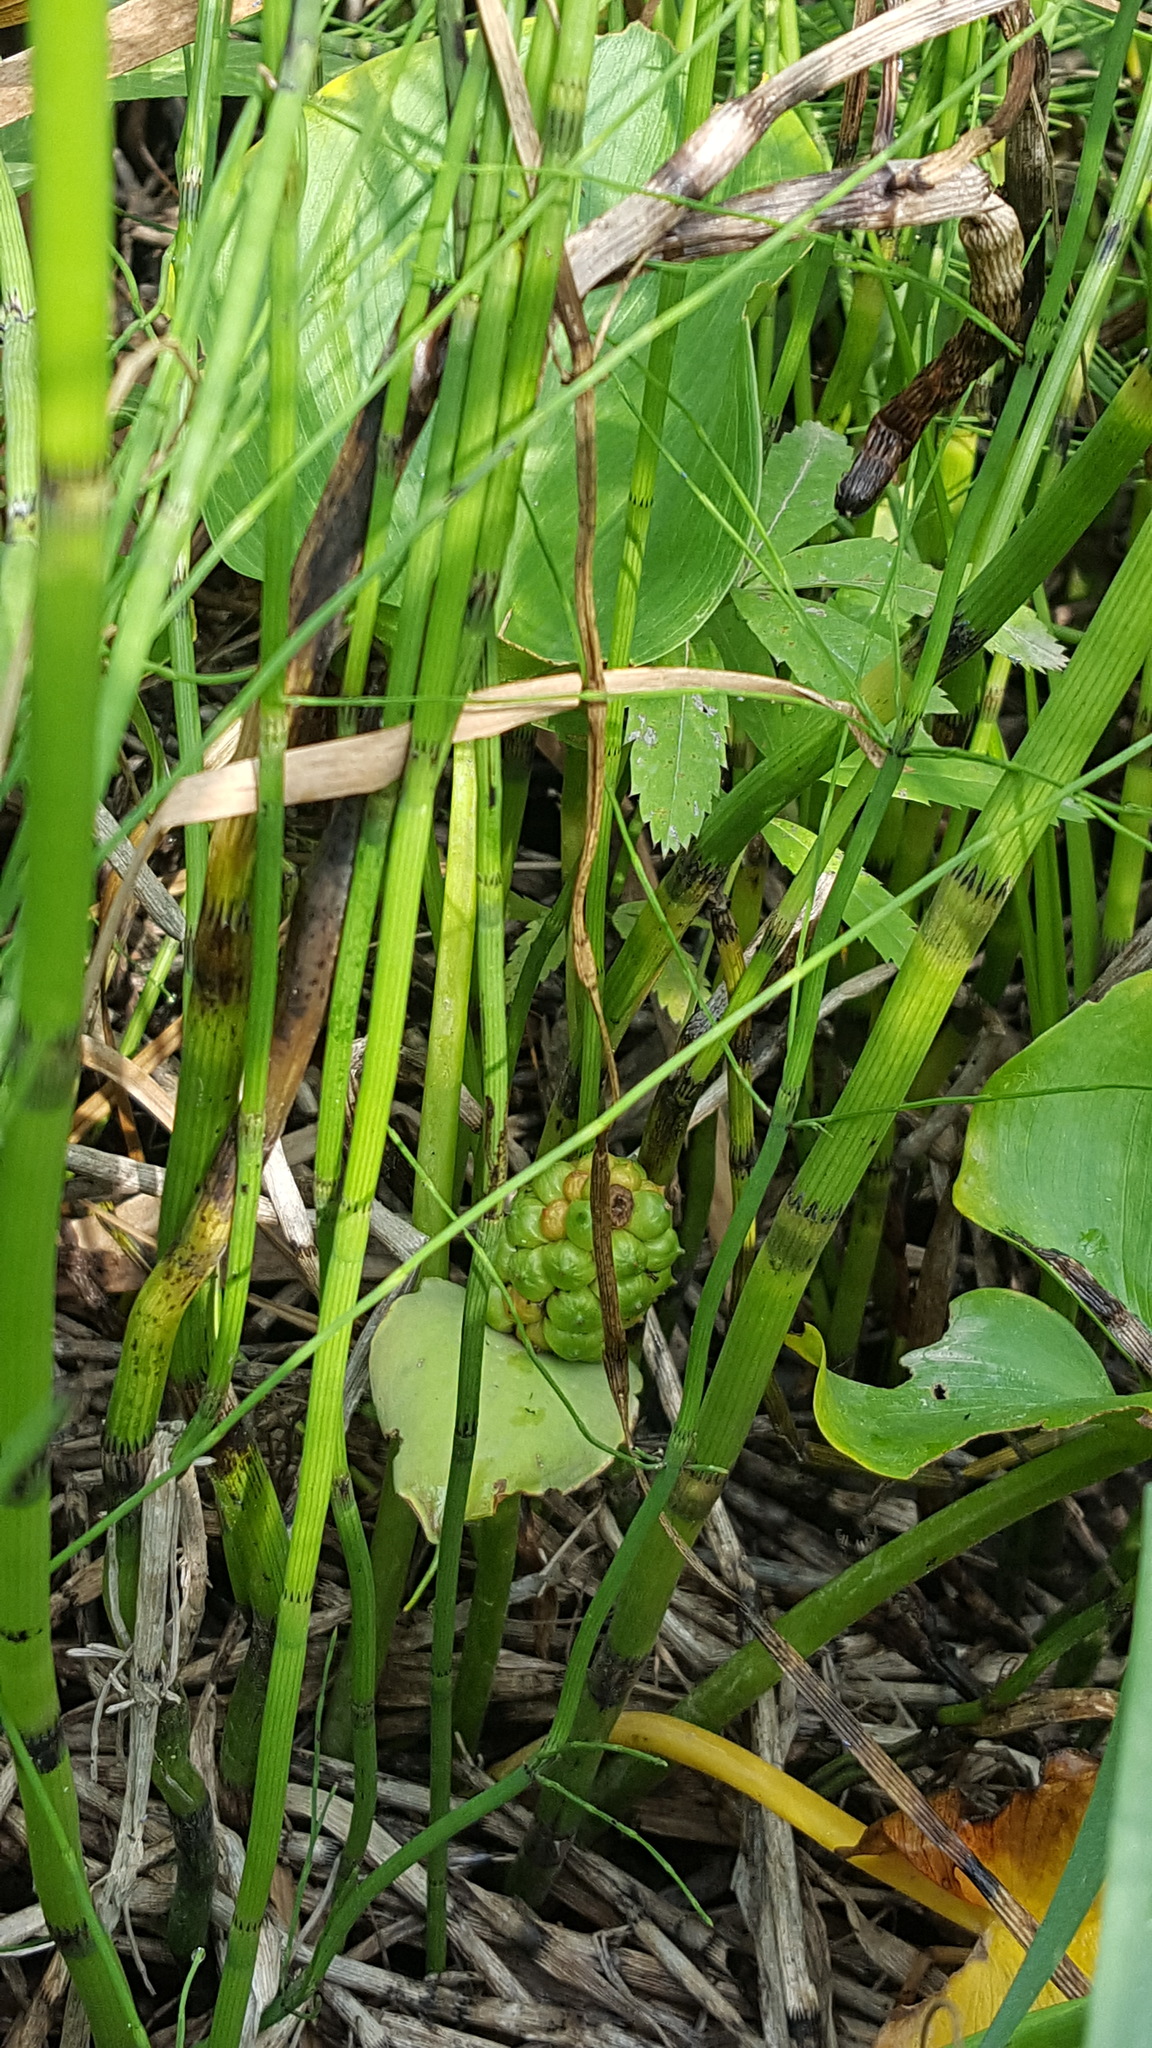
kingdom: Plantae
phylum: Tracheophyta
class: Liliopsida
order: Alismatales
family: Araceae
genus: Calla
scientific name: Calla palustris
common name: Bog arum
